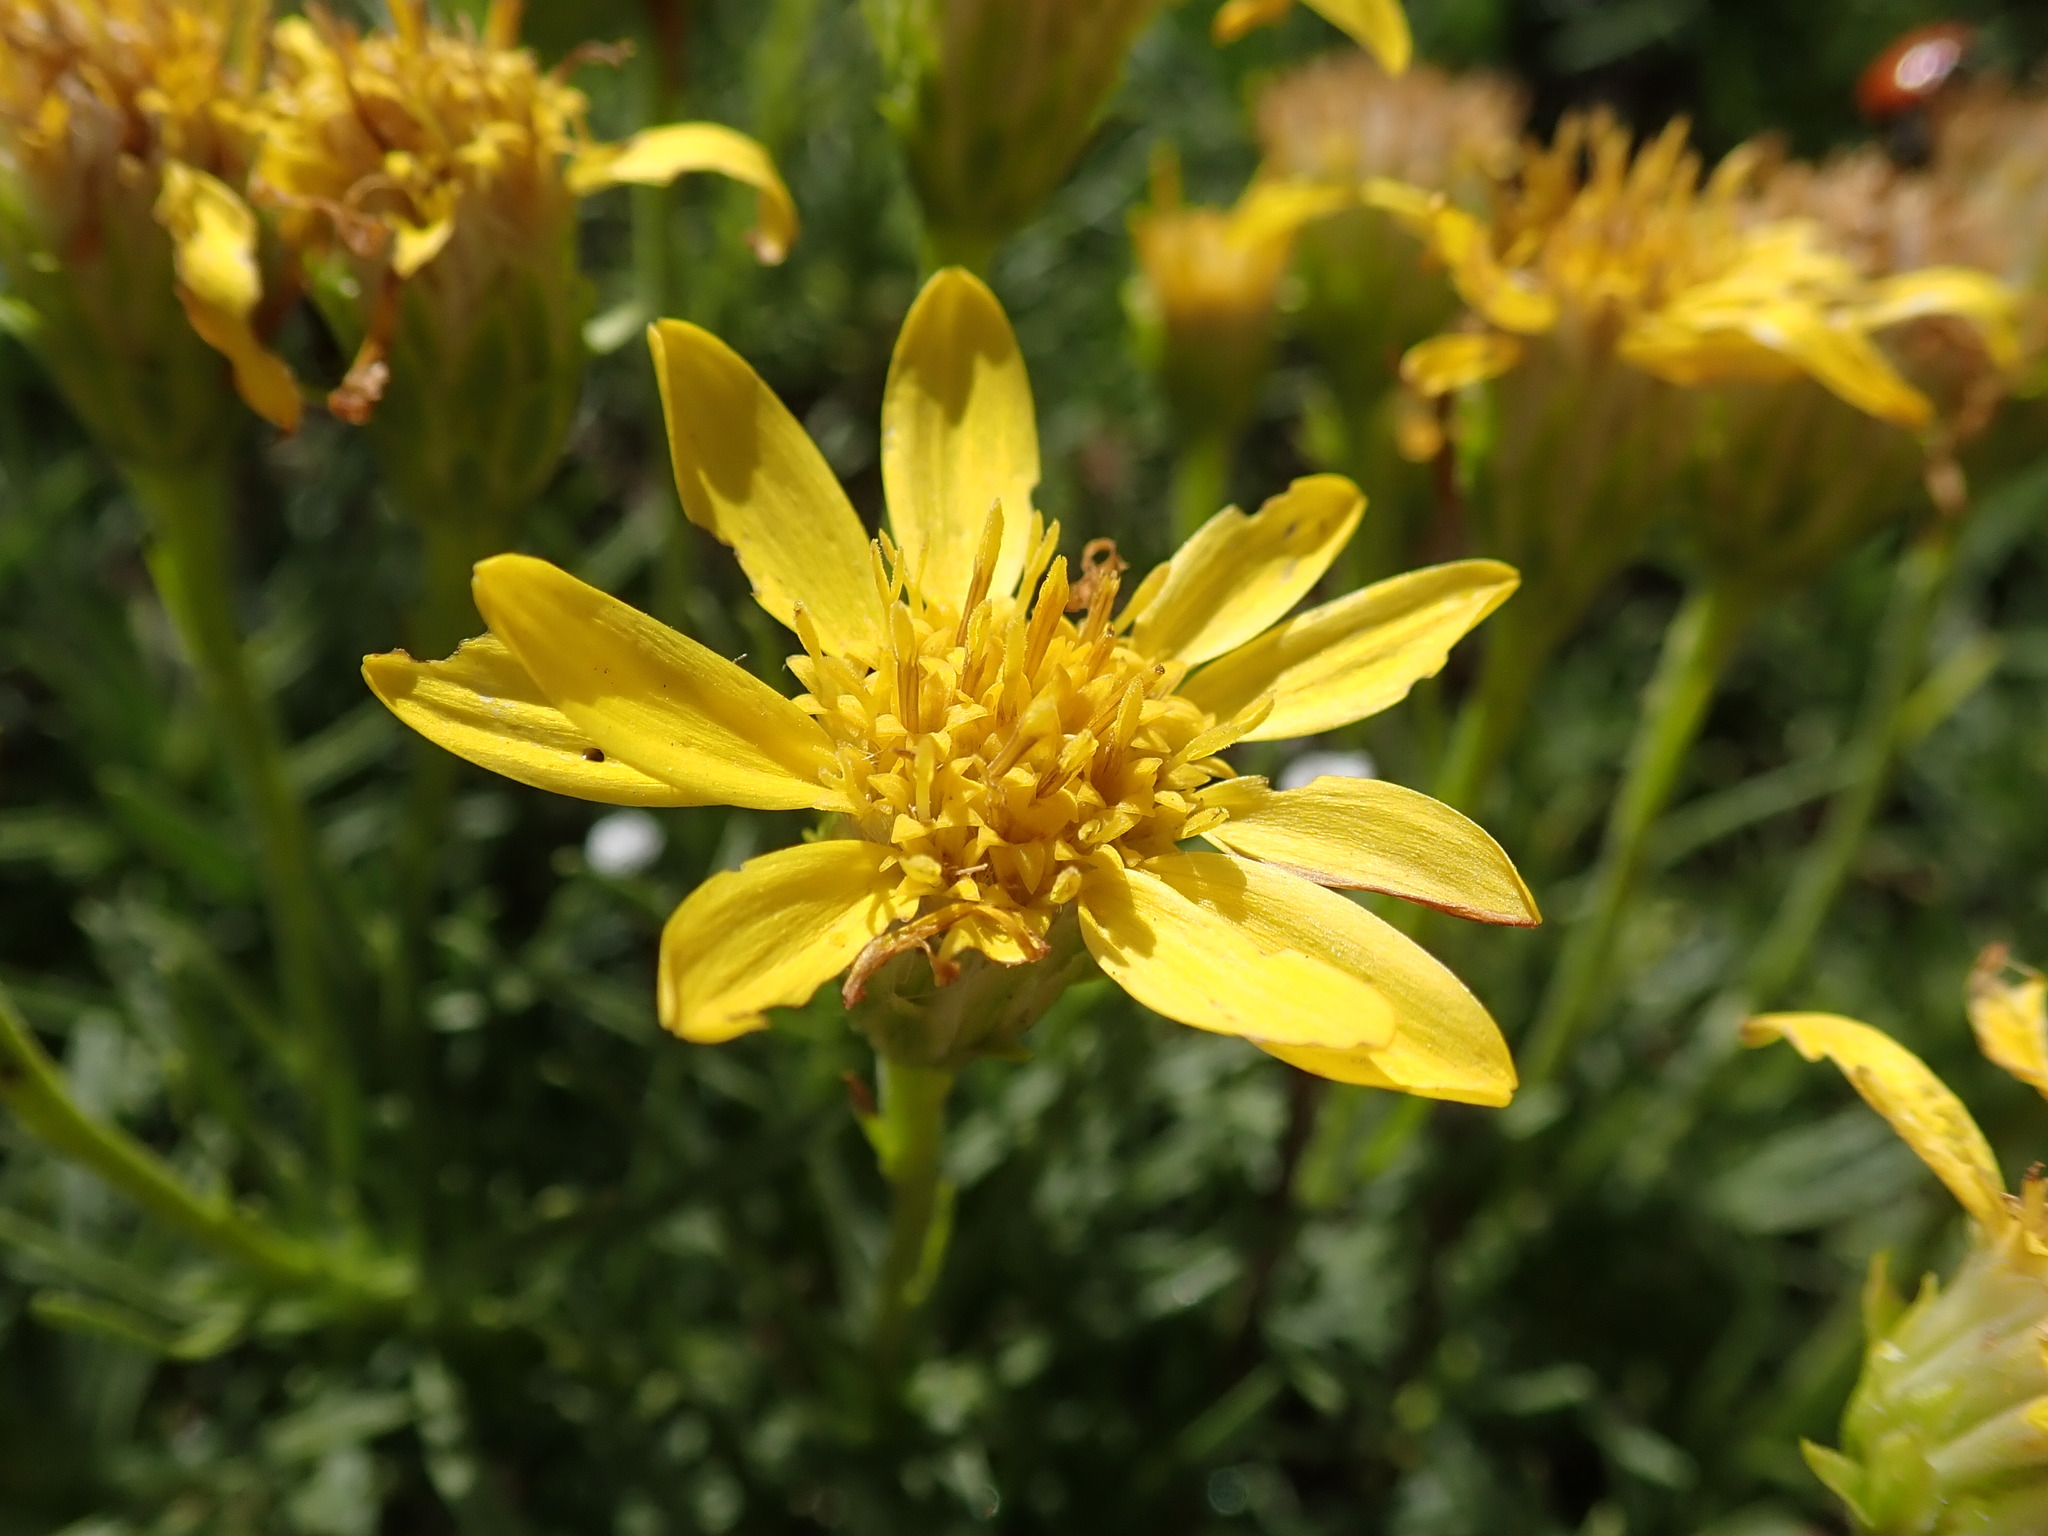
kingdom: Plantae
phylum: Tracheophyta
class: Magnoliopsida
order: Asterales
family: Asteraceae
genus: Ericameria
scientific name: Ericameria linearifolia
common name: Interior goldenbush
